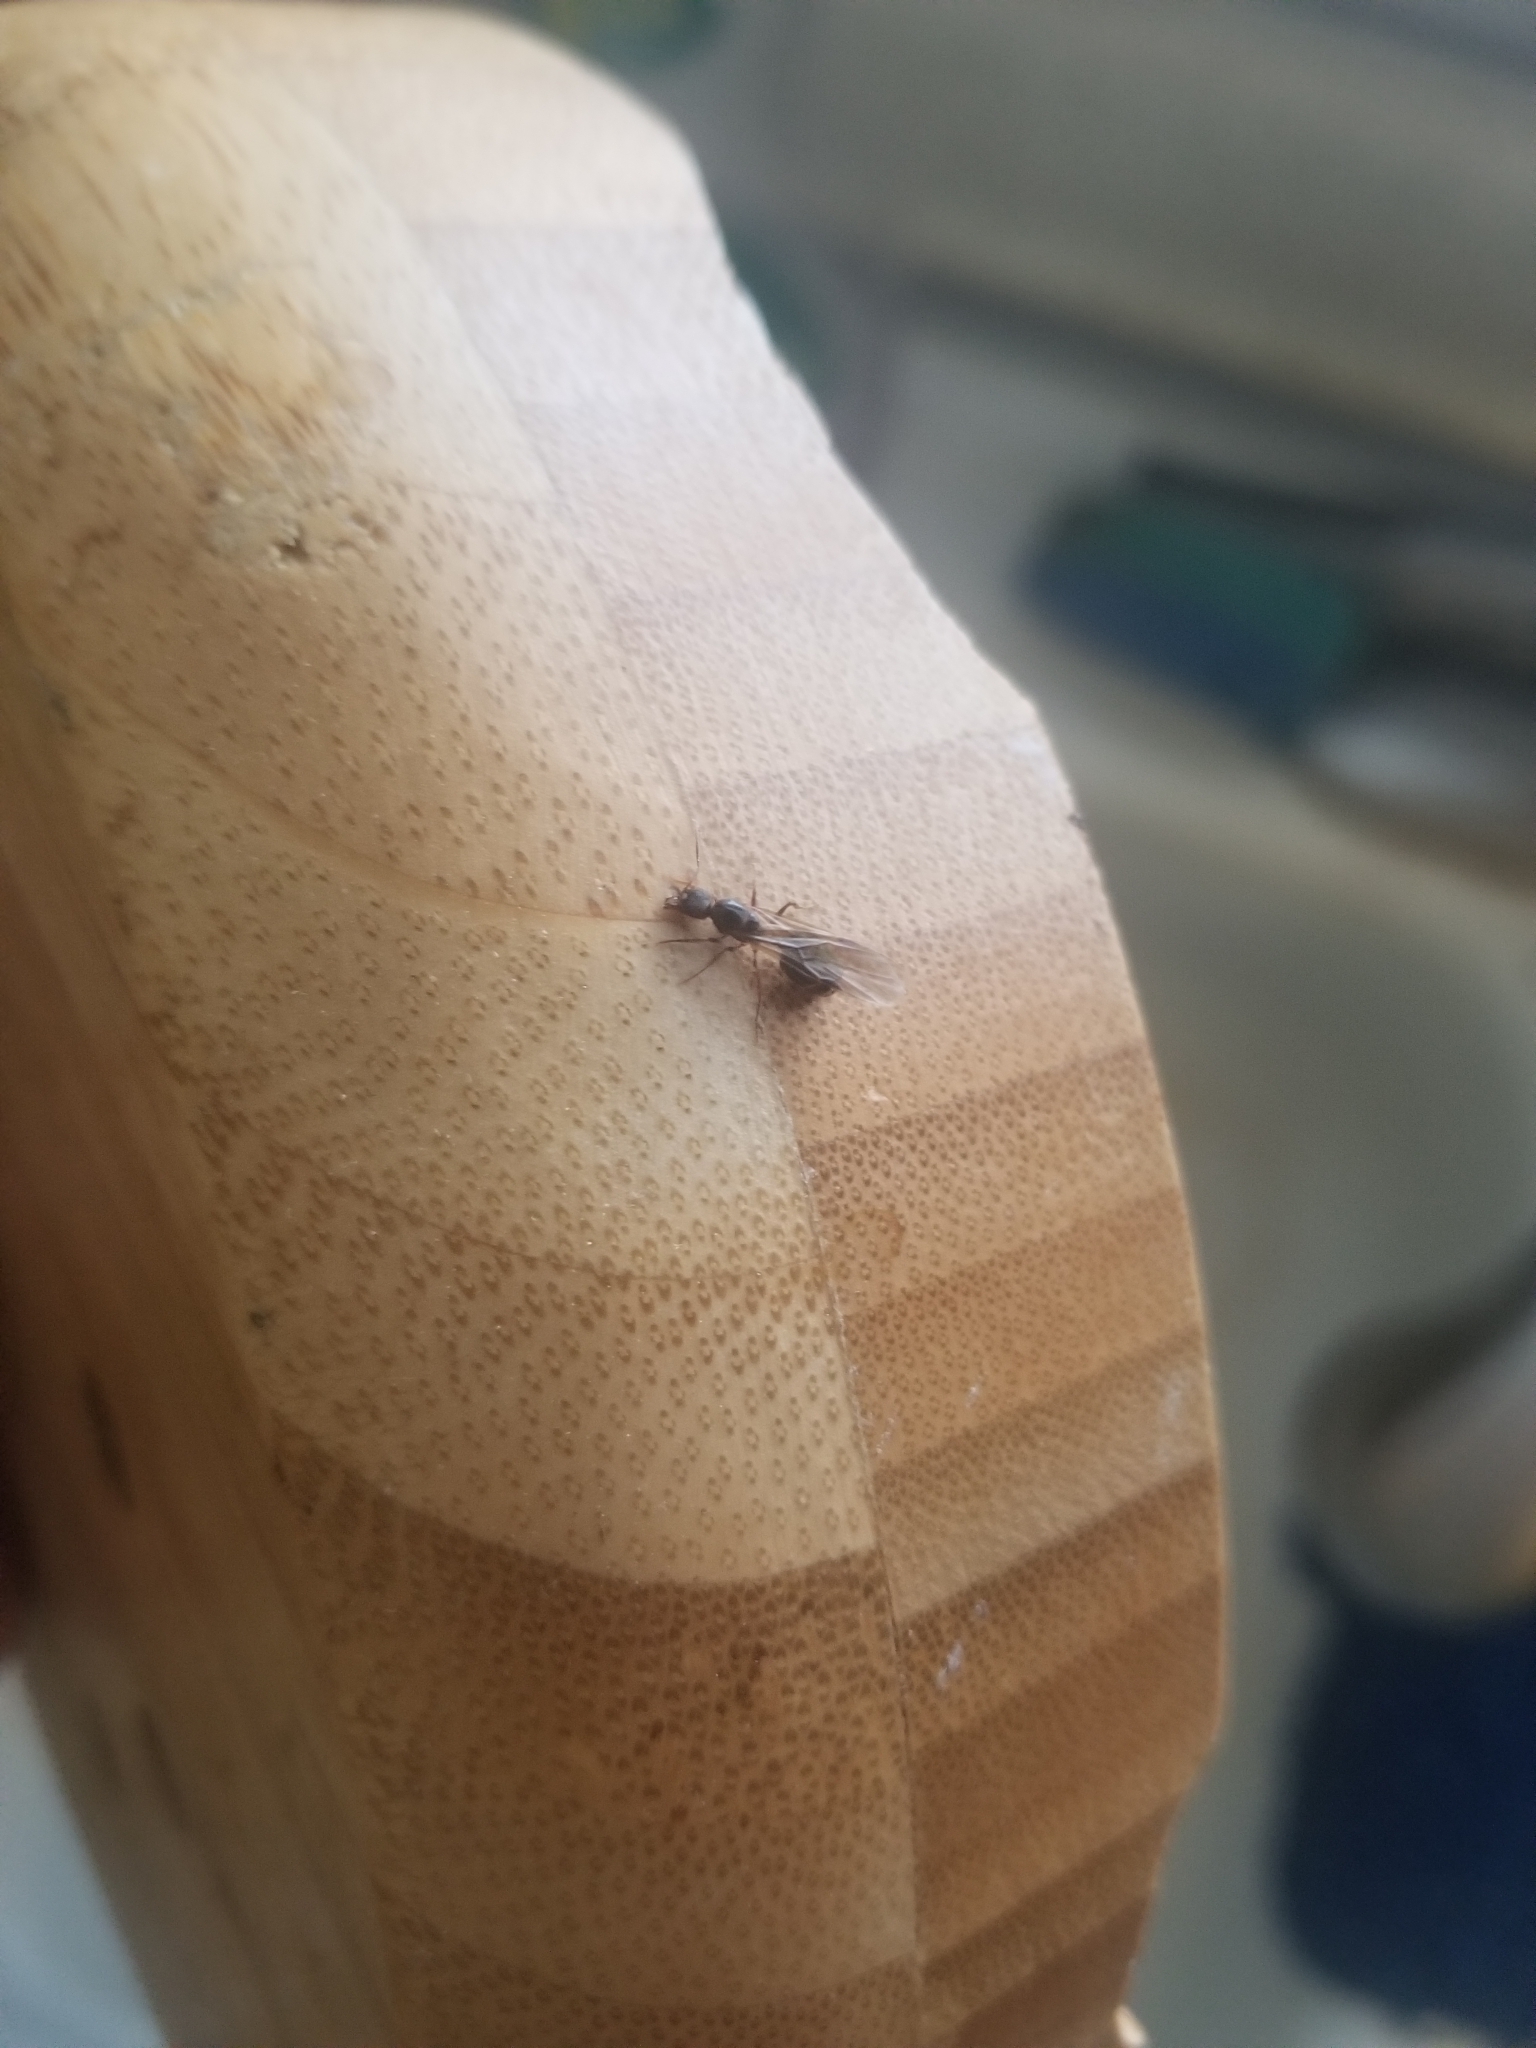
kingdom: Animalia
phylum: Arthropoda
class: Insecta
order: Hymenoptera
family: Formicidae
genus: Aphaenogaster
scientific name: Aphaenogaster occidentalis
